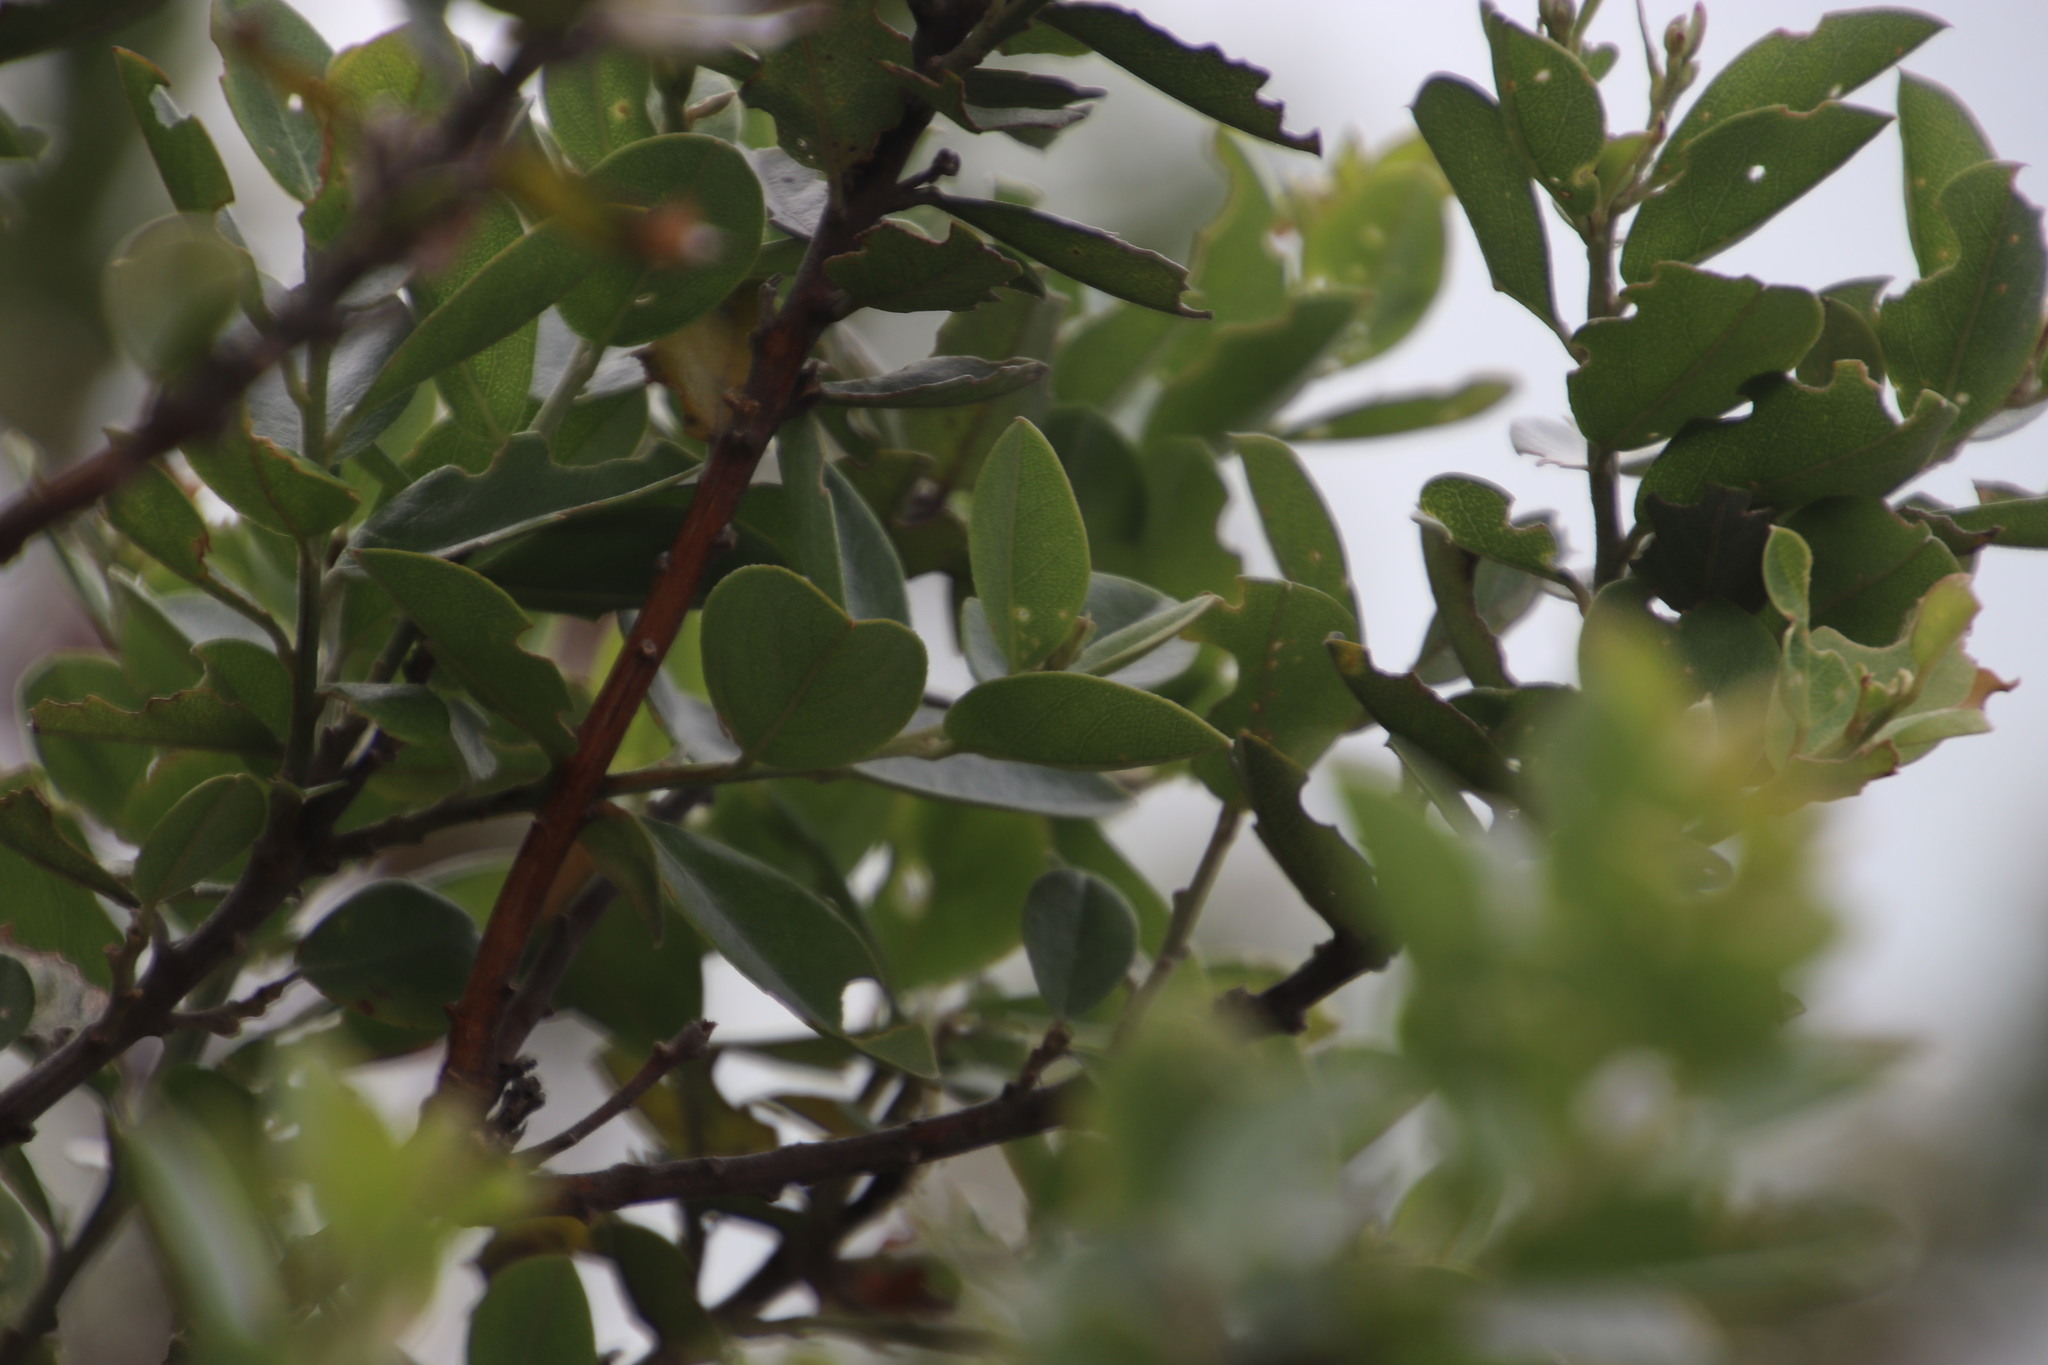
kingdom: Plantae
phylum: Tracheophyta
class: Magnoliopsida
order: Fabales
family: Fabaceae
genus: Podalyria
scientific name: Podalyria calyptrata
